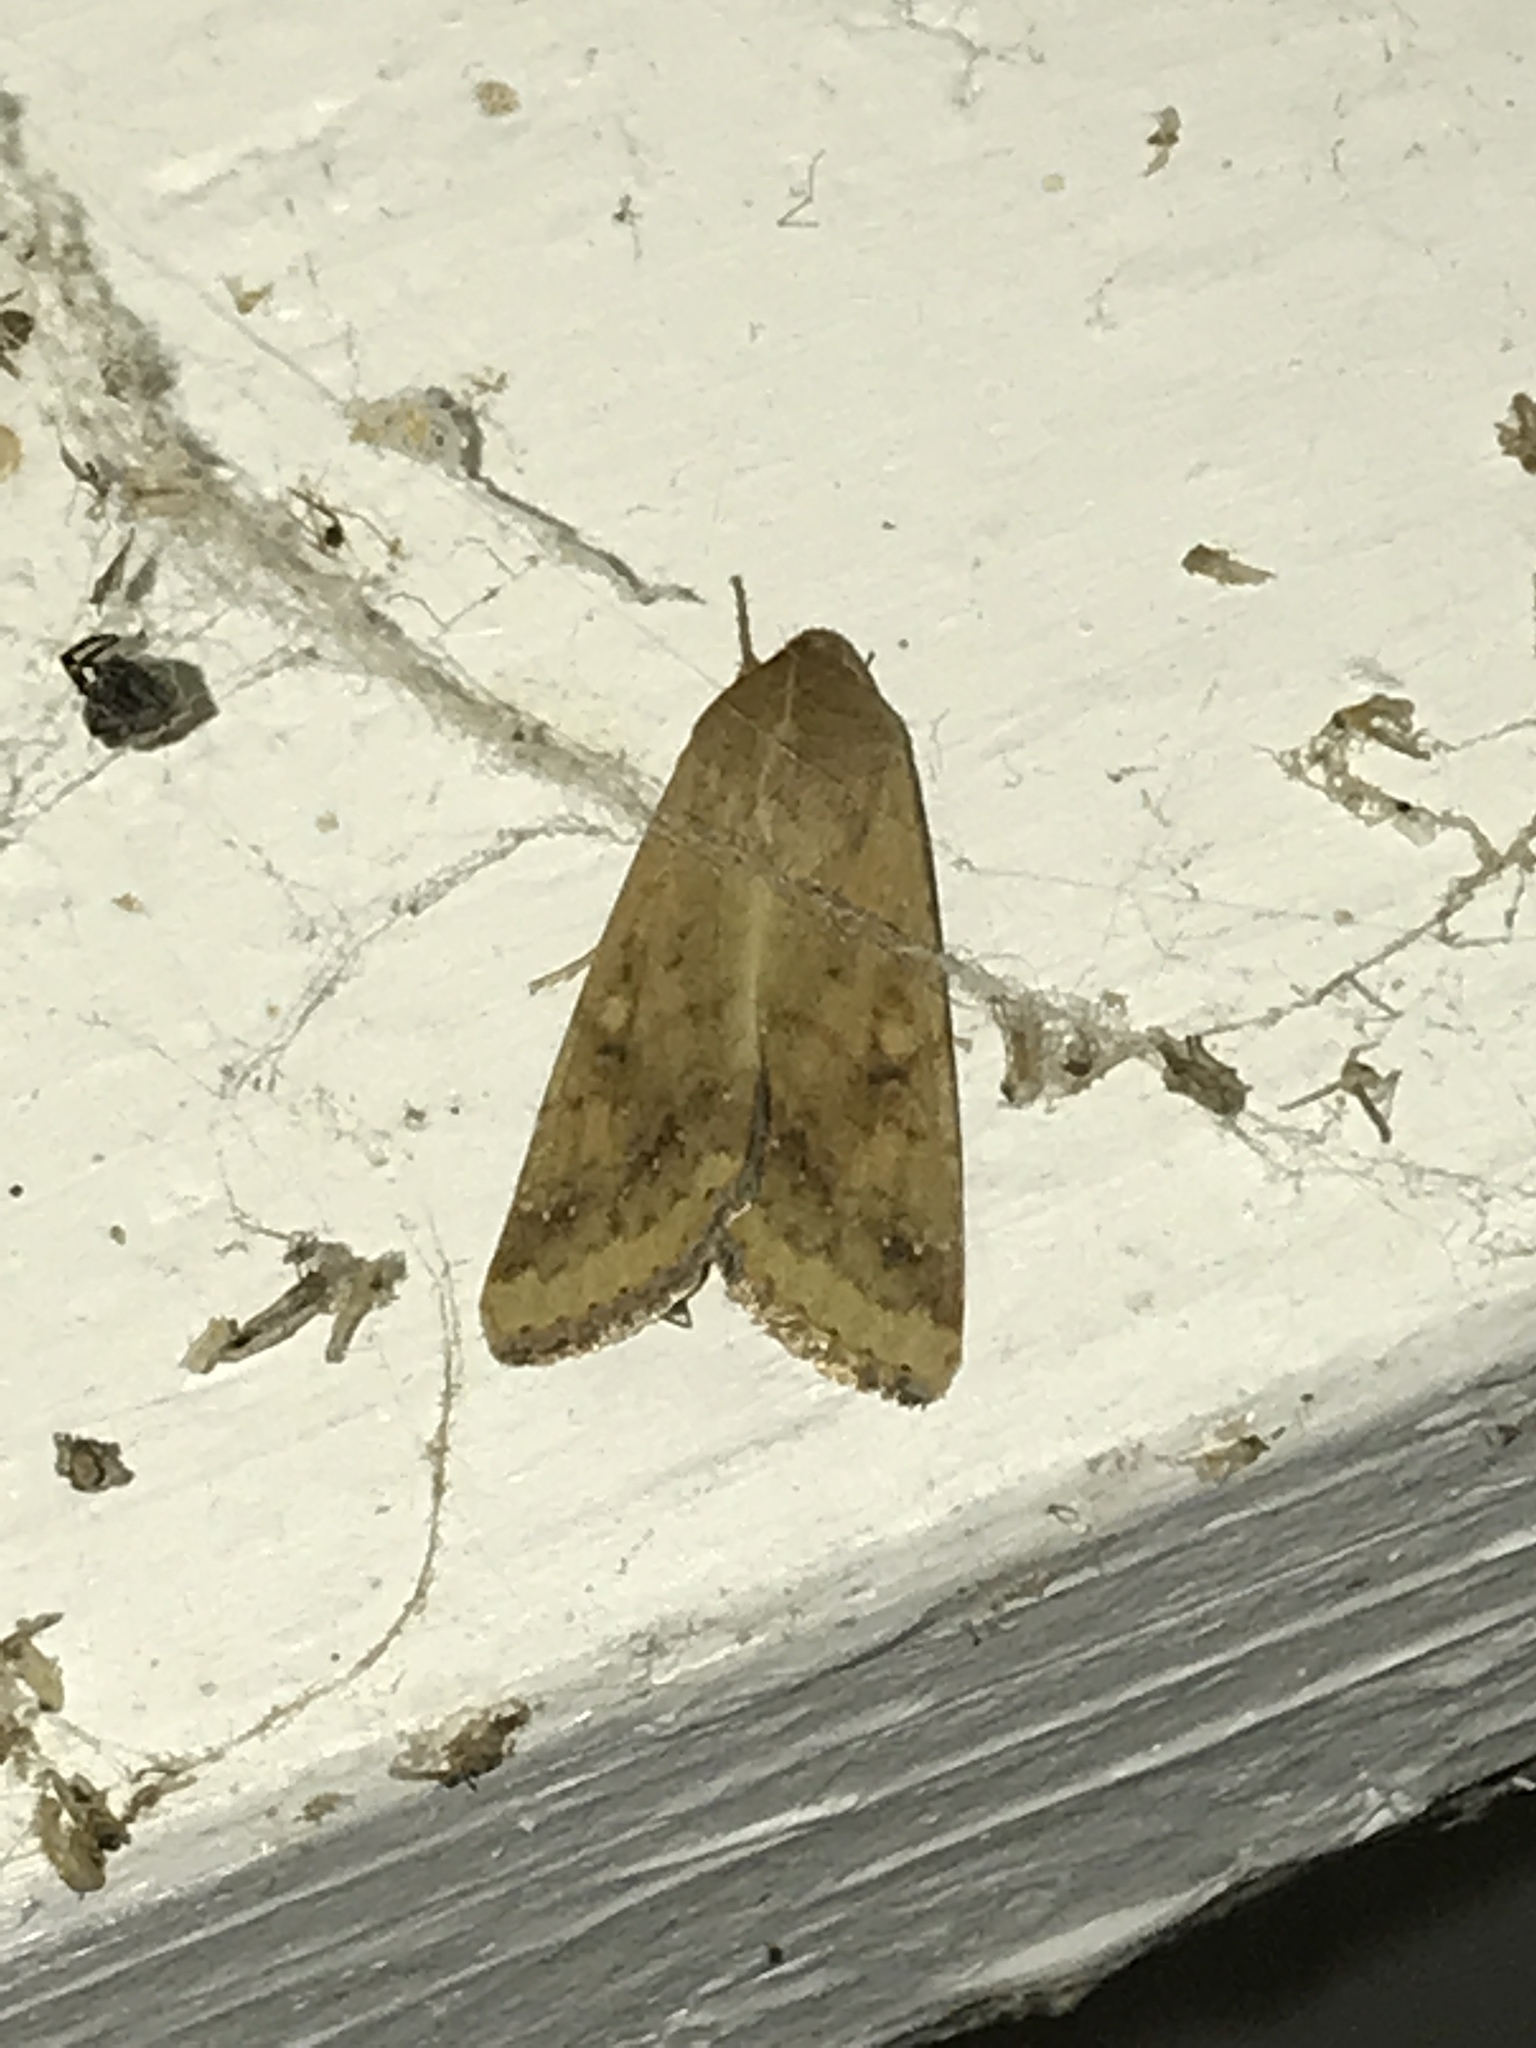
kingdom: Animalia
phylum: Arthropoda
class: Insecta
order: Lepidoptera
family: Noctuidae
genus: Helicoverpa
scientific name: Helicoverpa zea
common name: Bollworm
